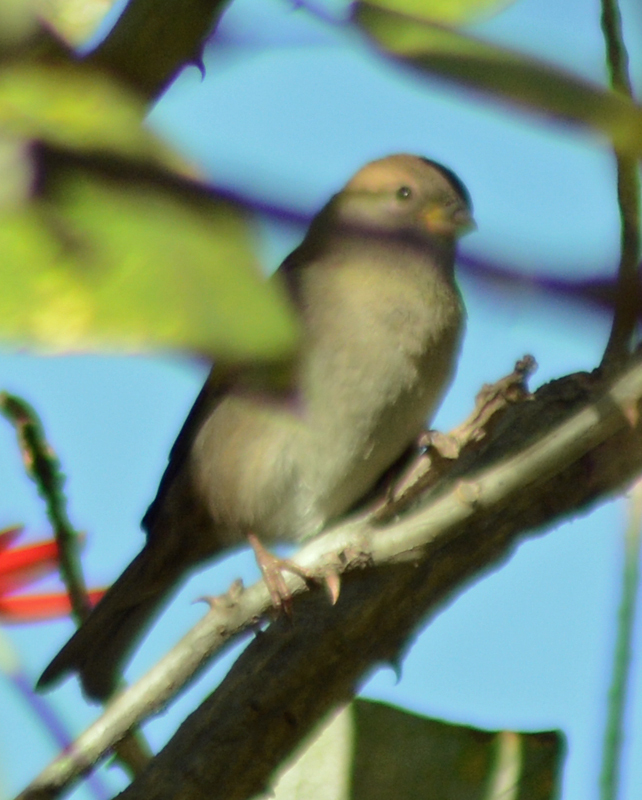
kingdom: Animalia
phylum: Chordata
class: Aves
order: Passeriformes
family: Passeridae
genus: Passer
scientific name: Passer domesticus
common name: House sparrow
